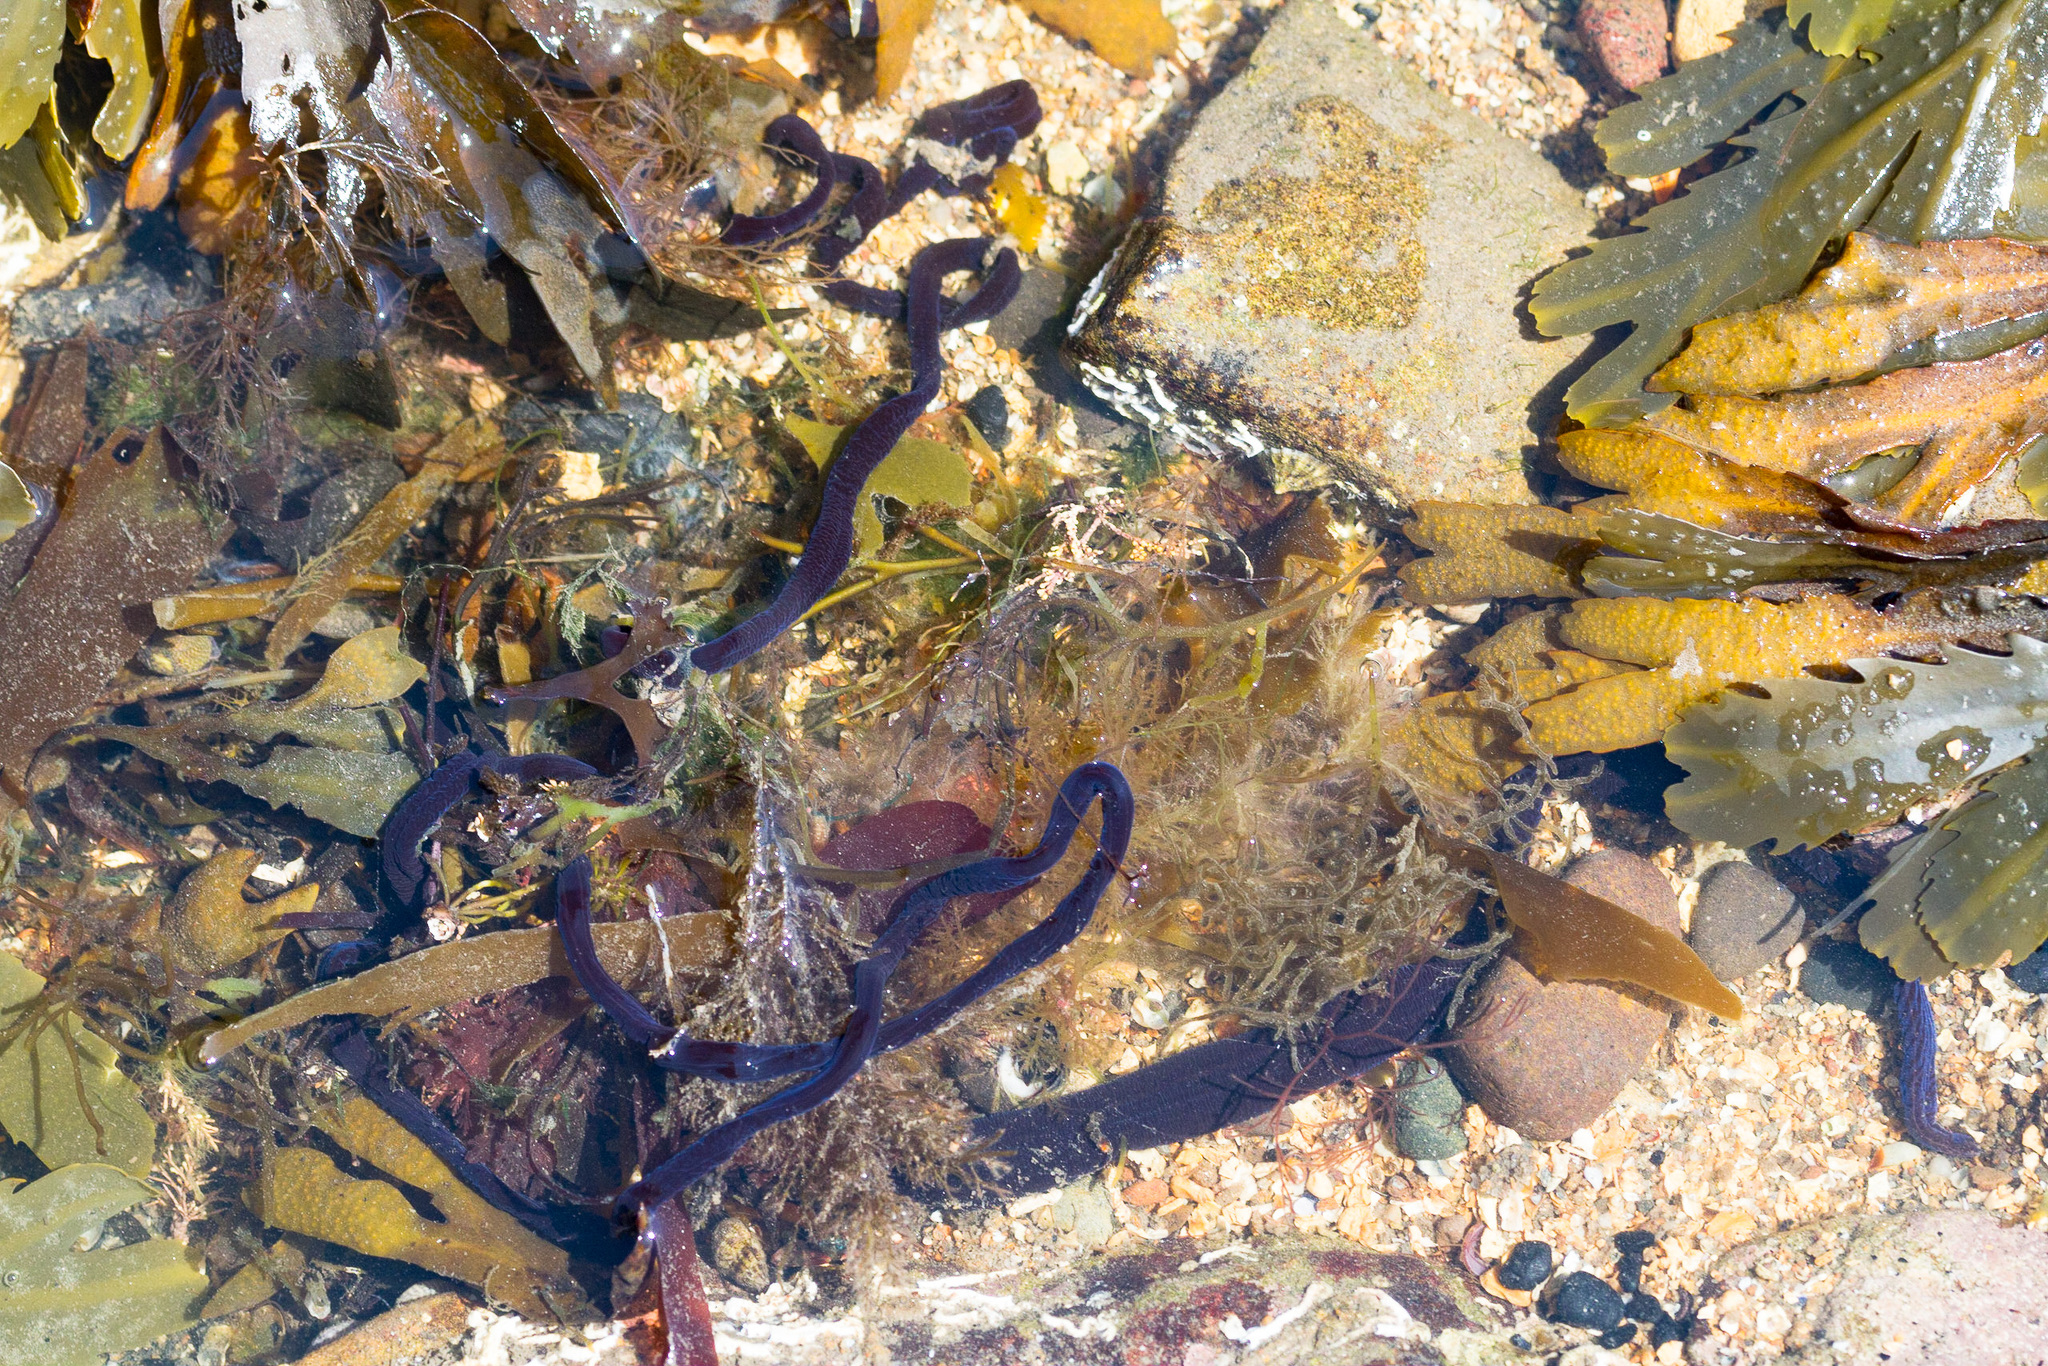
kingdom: Animalia
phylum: Nemertea
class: Pilidiophora
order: Heteronemertea
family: Lineidae
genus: Lineus
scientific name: Lineus longissimus
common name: Bootlace worm
